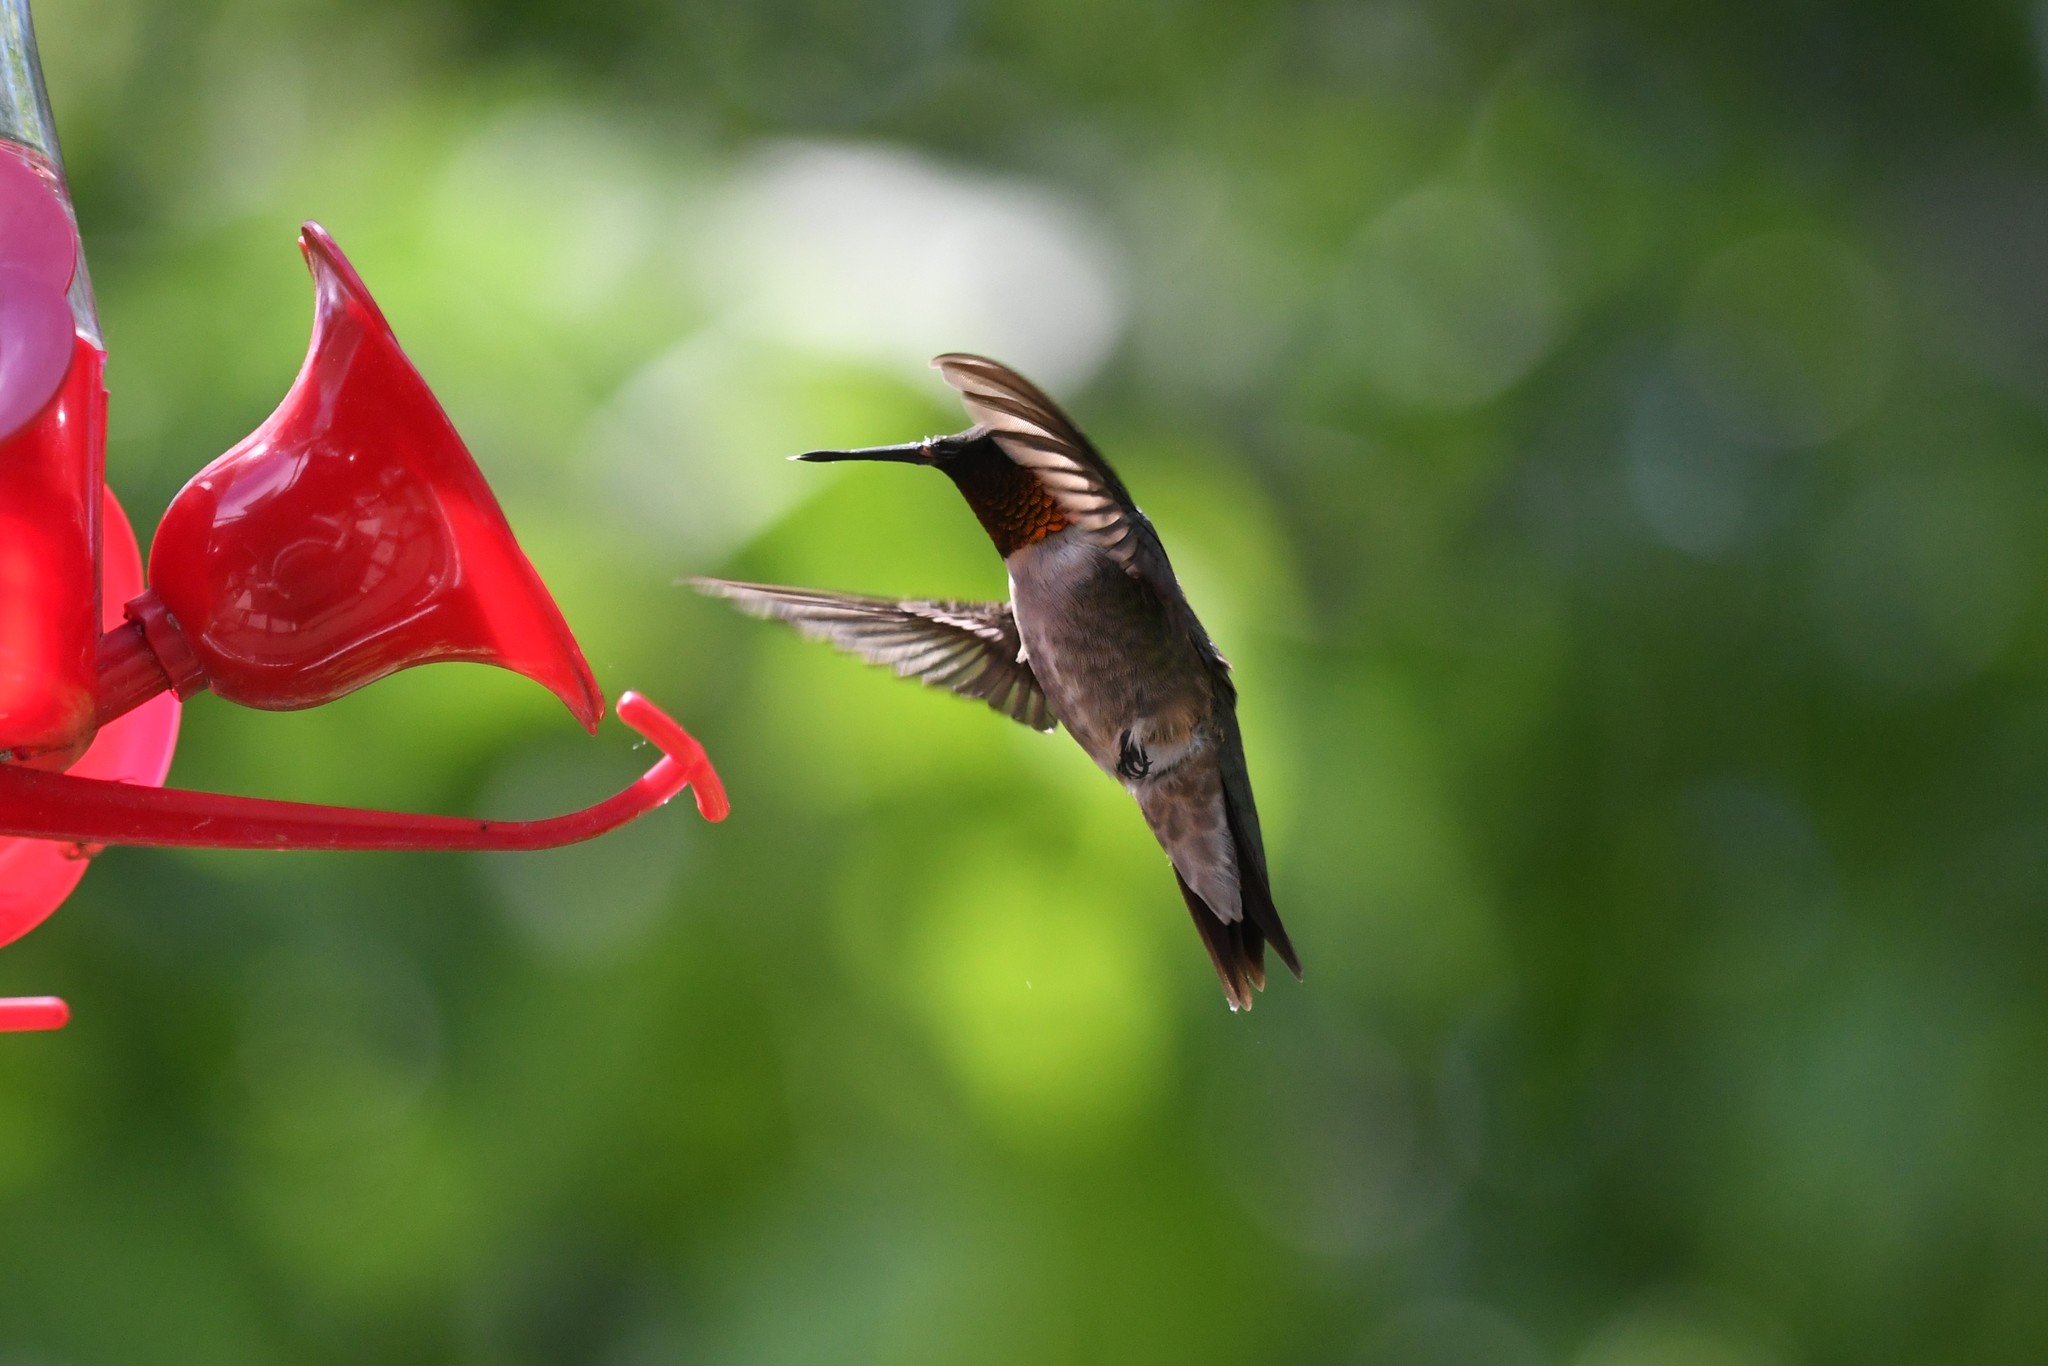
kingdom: Animalia
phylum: Chordata
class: Aves
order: Apodiformes
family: Trochilidae
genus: Archilochus
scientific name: Archilochus colubris
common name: Ruby-throated hummingbird
